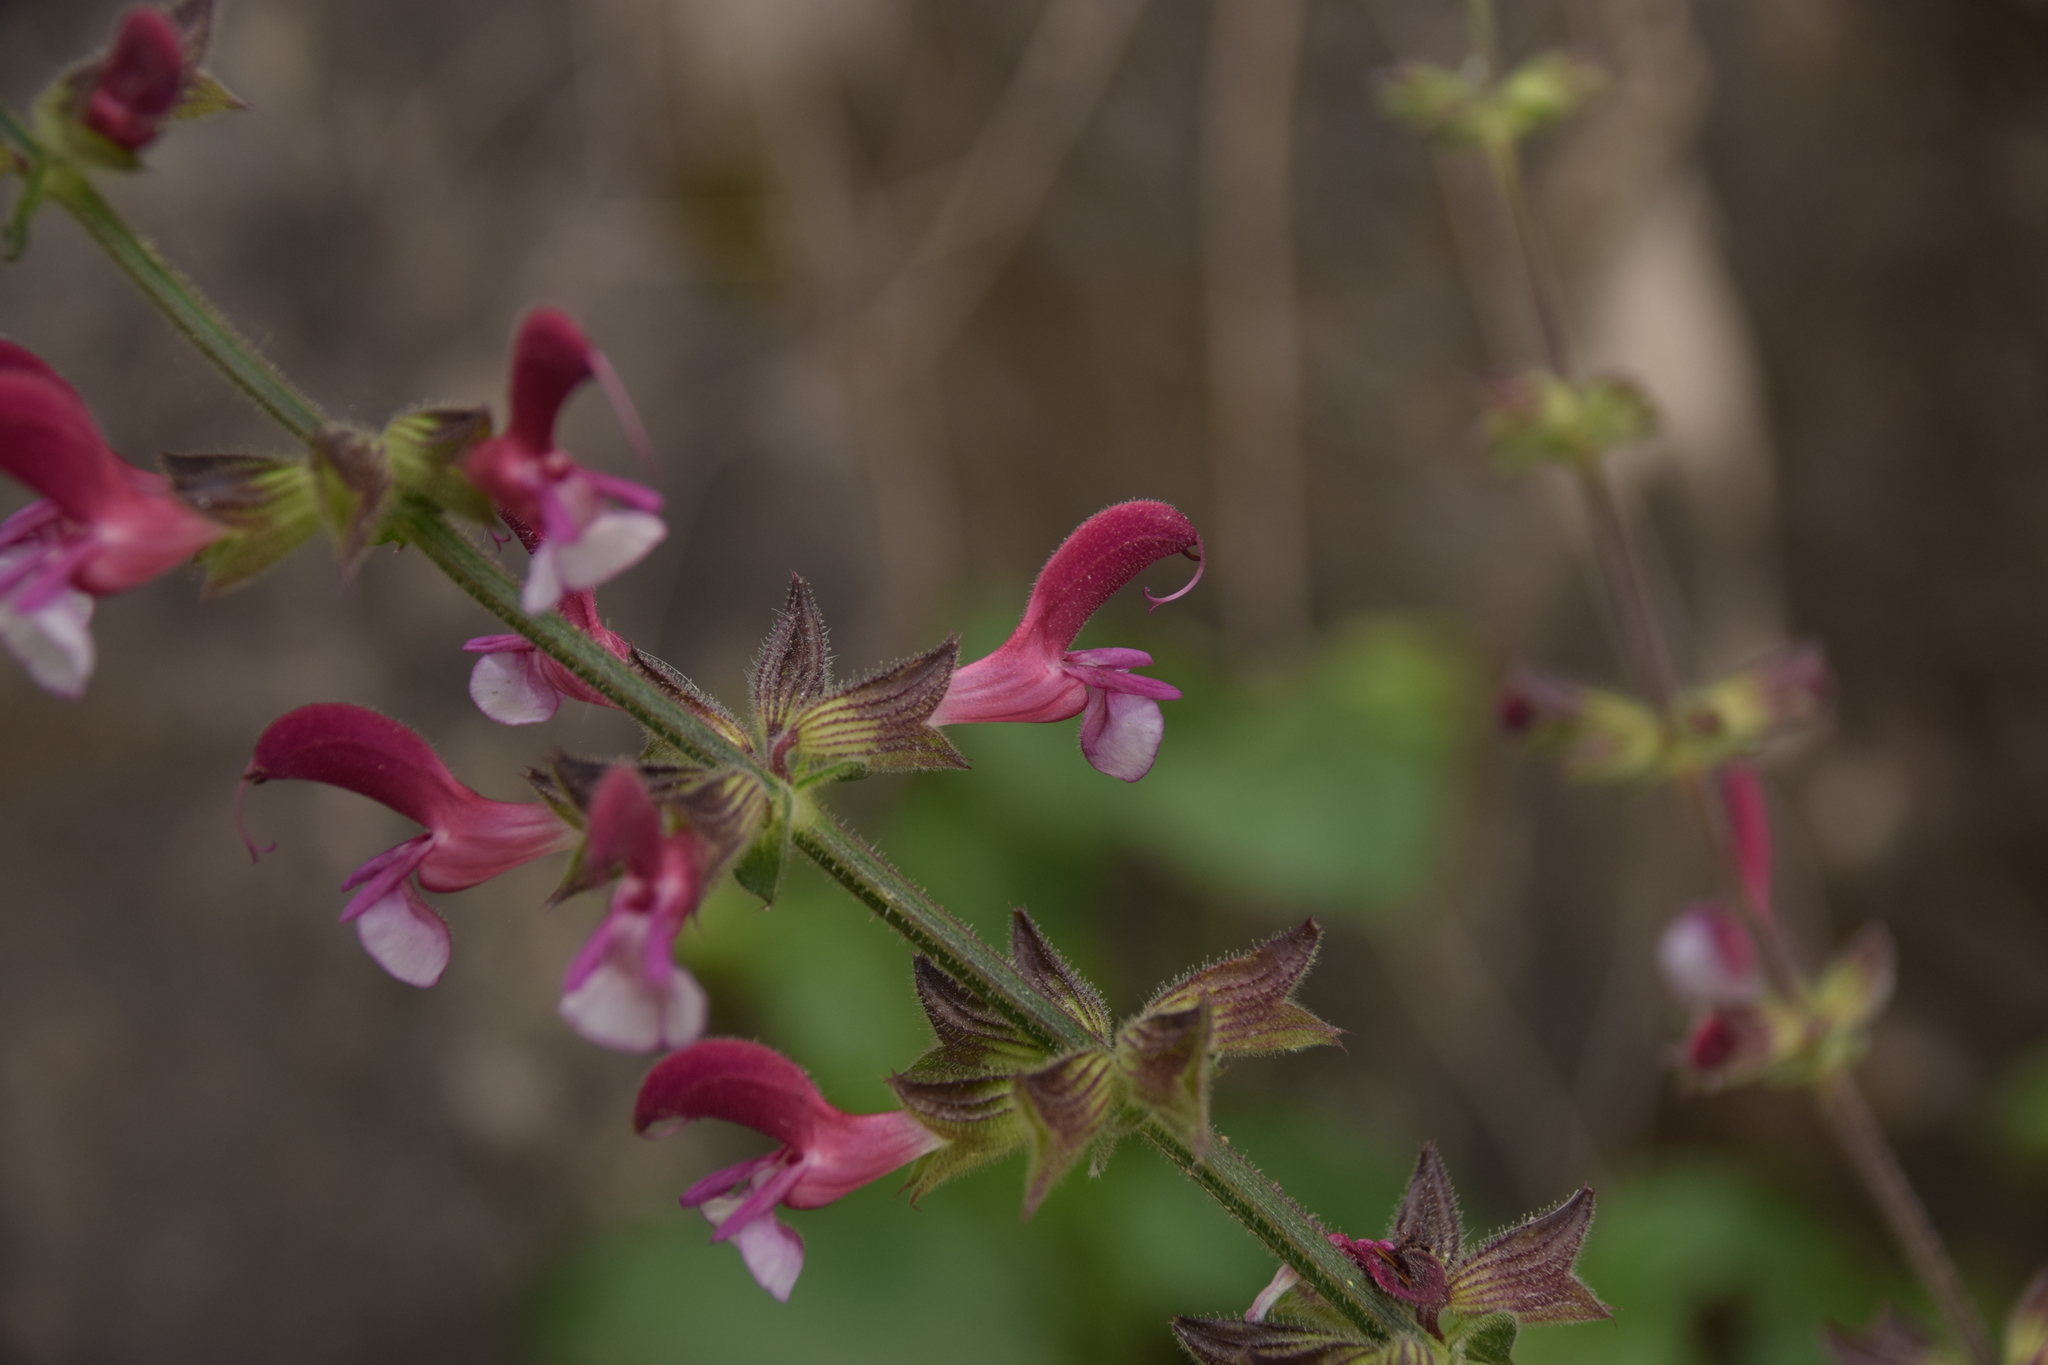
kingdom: Plantae
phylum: Tracheophyta
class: Magnoliopsida
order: Lamiales
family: Lamiaceae
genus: Salvia
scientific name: Salvia hierosolymitana
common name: Jerusalem salvia
